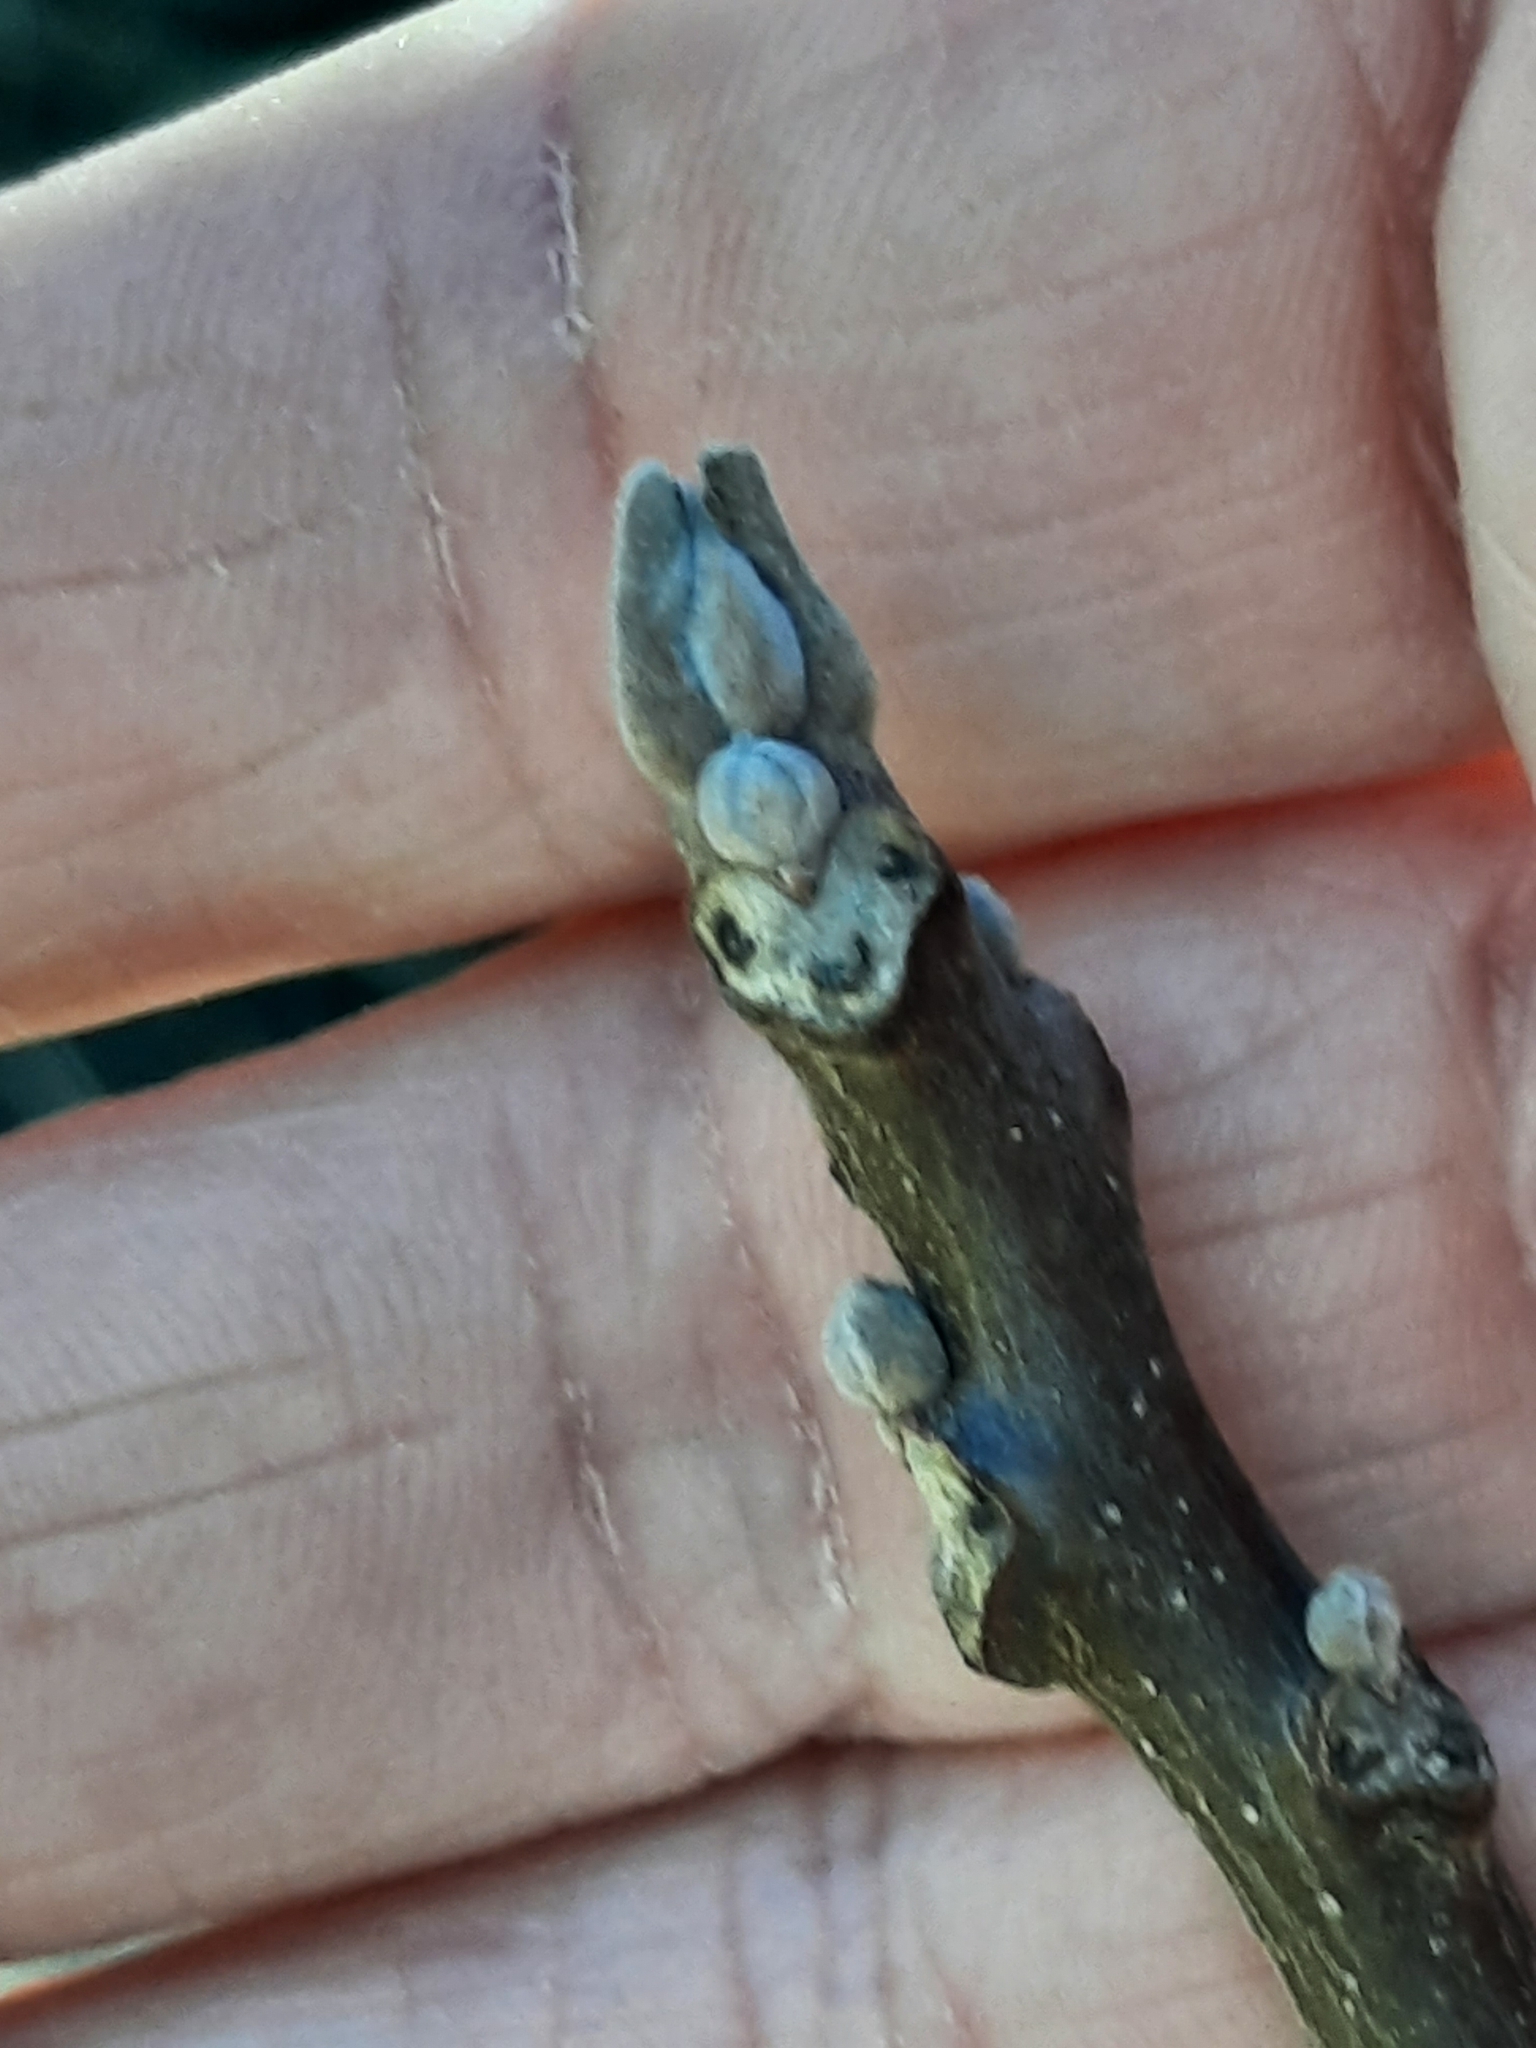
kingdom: Plantae
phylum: Tracheophyta
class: Magnoliopsida
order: Fagales
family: Juglandaceae
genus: Juglans
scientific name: Juglans nigra
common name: Black walnut
